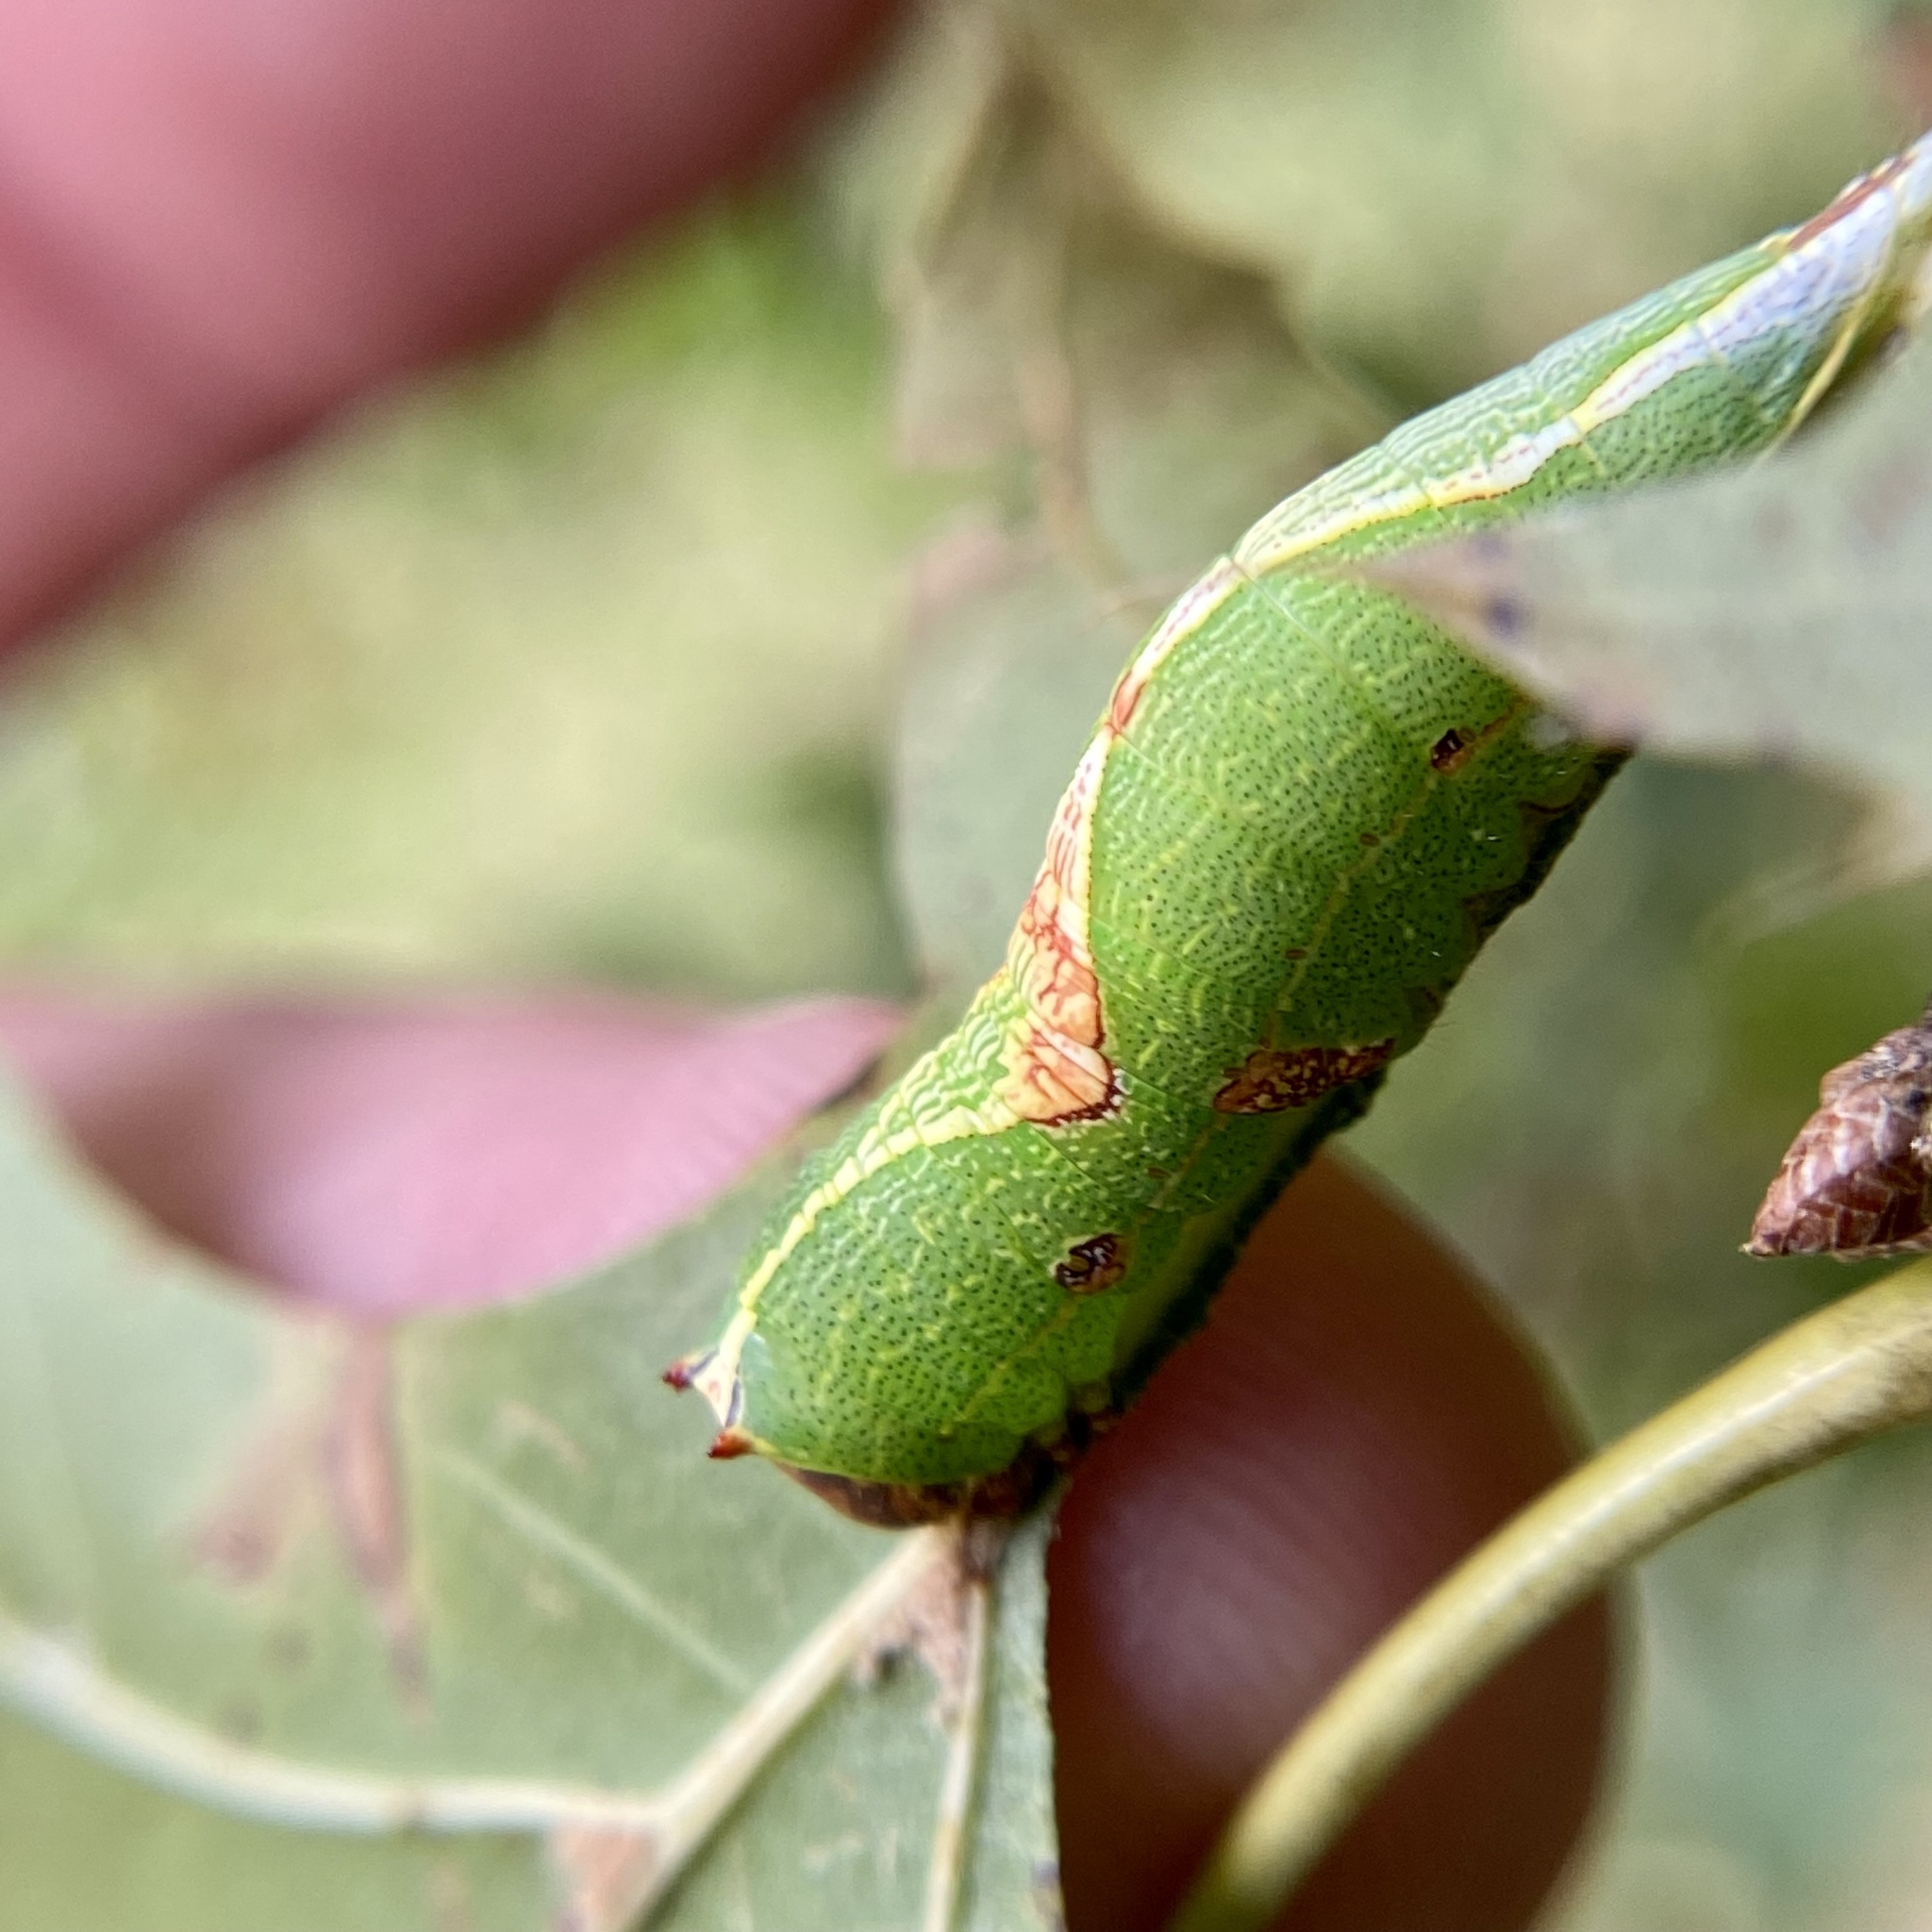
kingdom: Animalia
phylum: Arthropoda
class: Insecta
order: Lepidoptera
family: Notodontidae
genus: Heterocampa
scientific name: Heterocampa obliqua
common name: Oblique heterocampa
